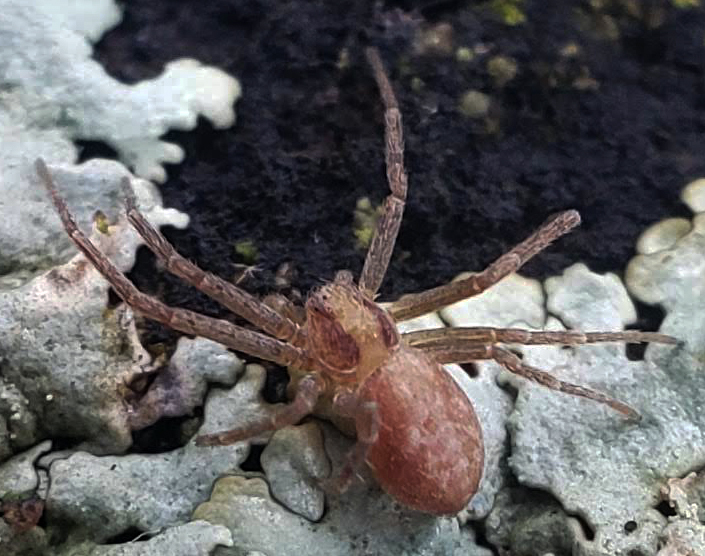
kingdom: Animalia
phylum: Arthropoda
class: Arachnida
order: Araneae
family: Philodromidae
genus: Philodromus
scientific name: Philodromus
